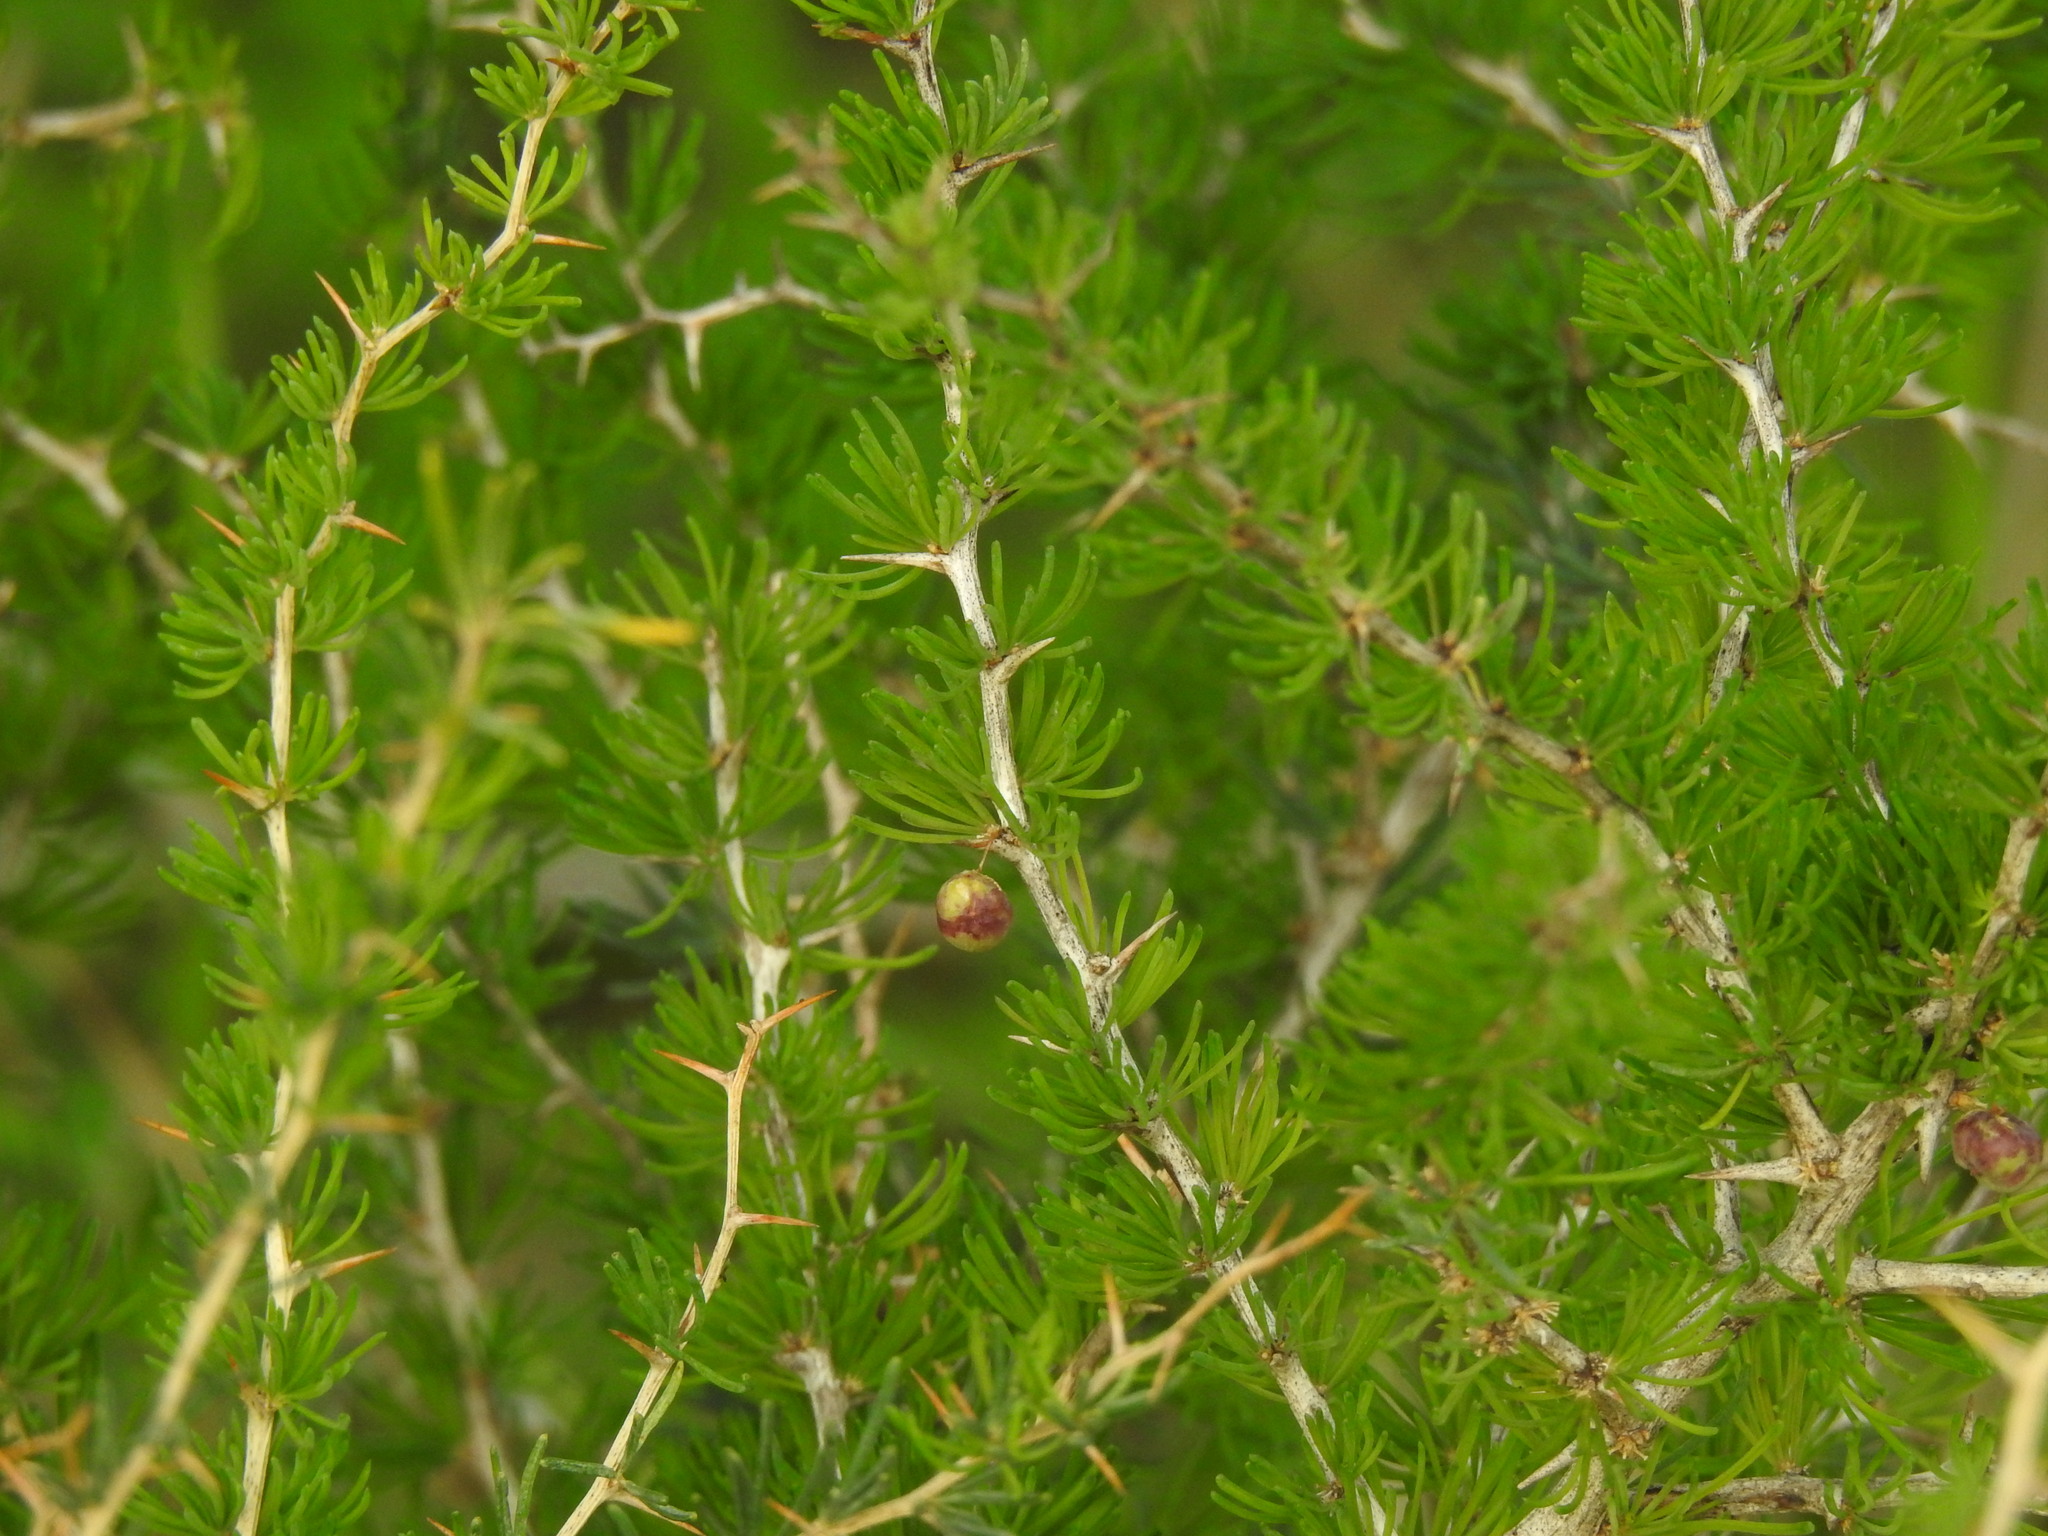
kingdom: Plantae
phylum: Tracheophyta
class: Liliopsida
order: Asparagales
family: Asparagaceae
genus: Asparagus
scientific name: Asparagus albus
